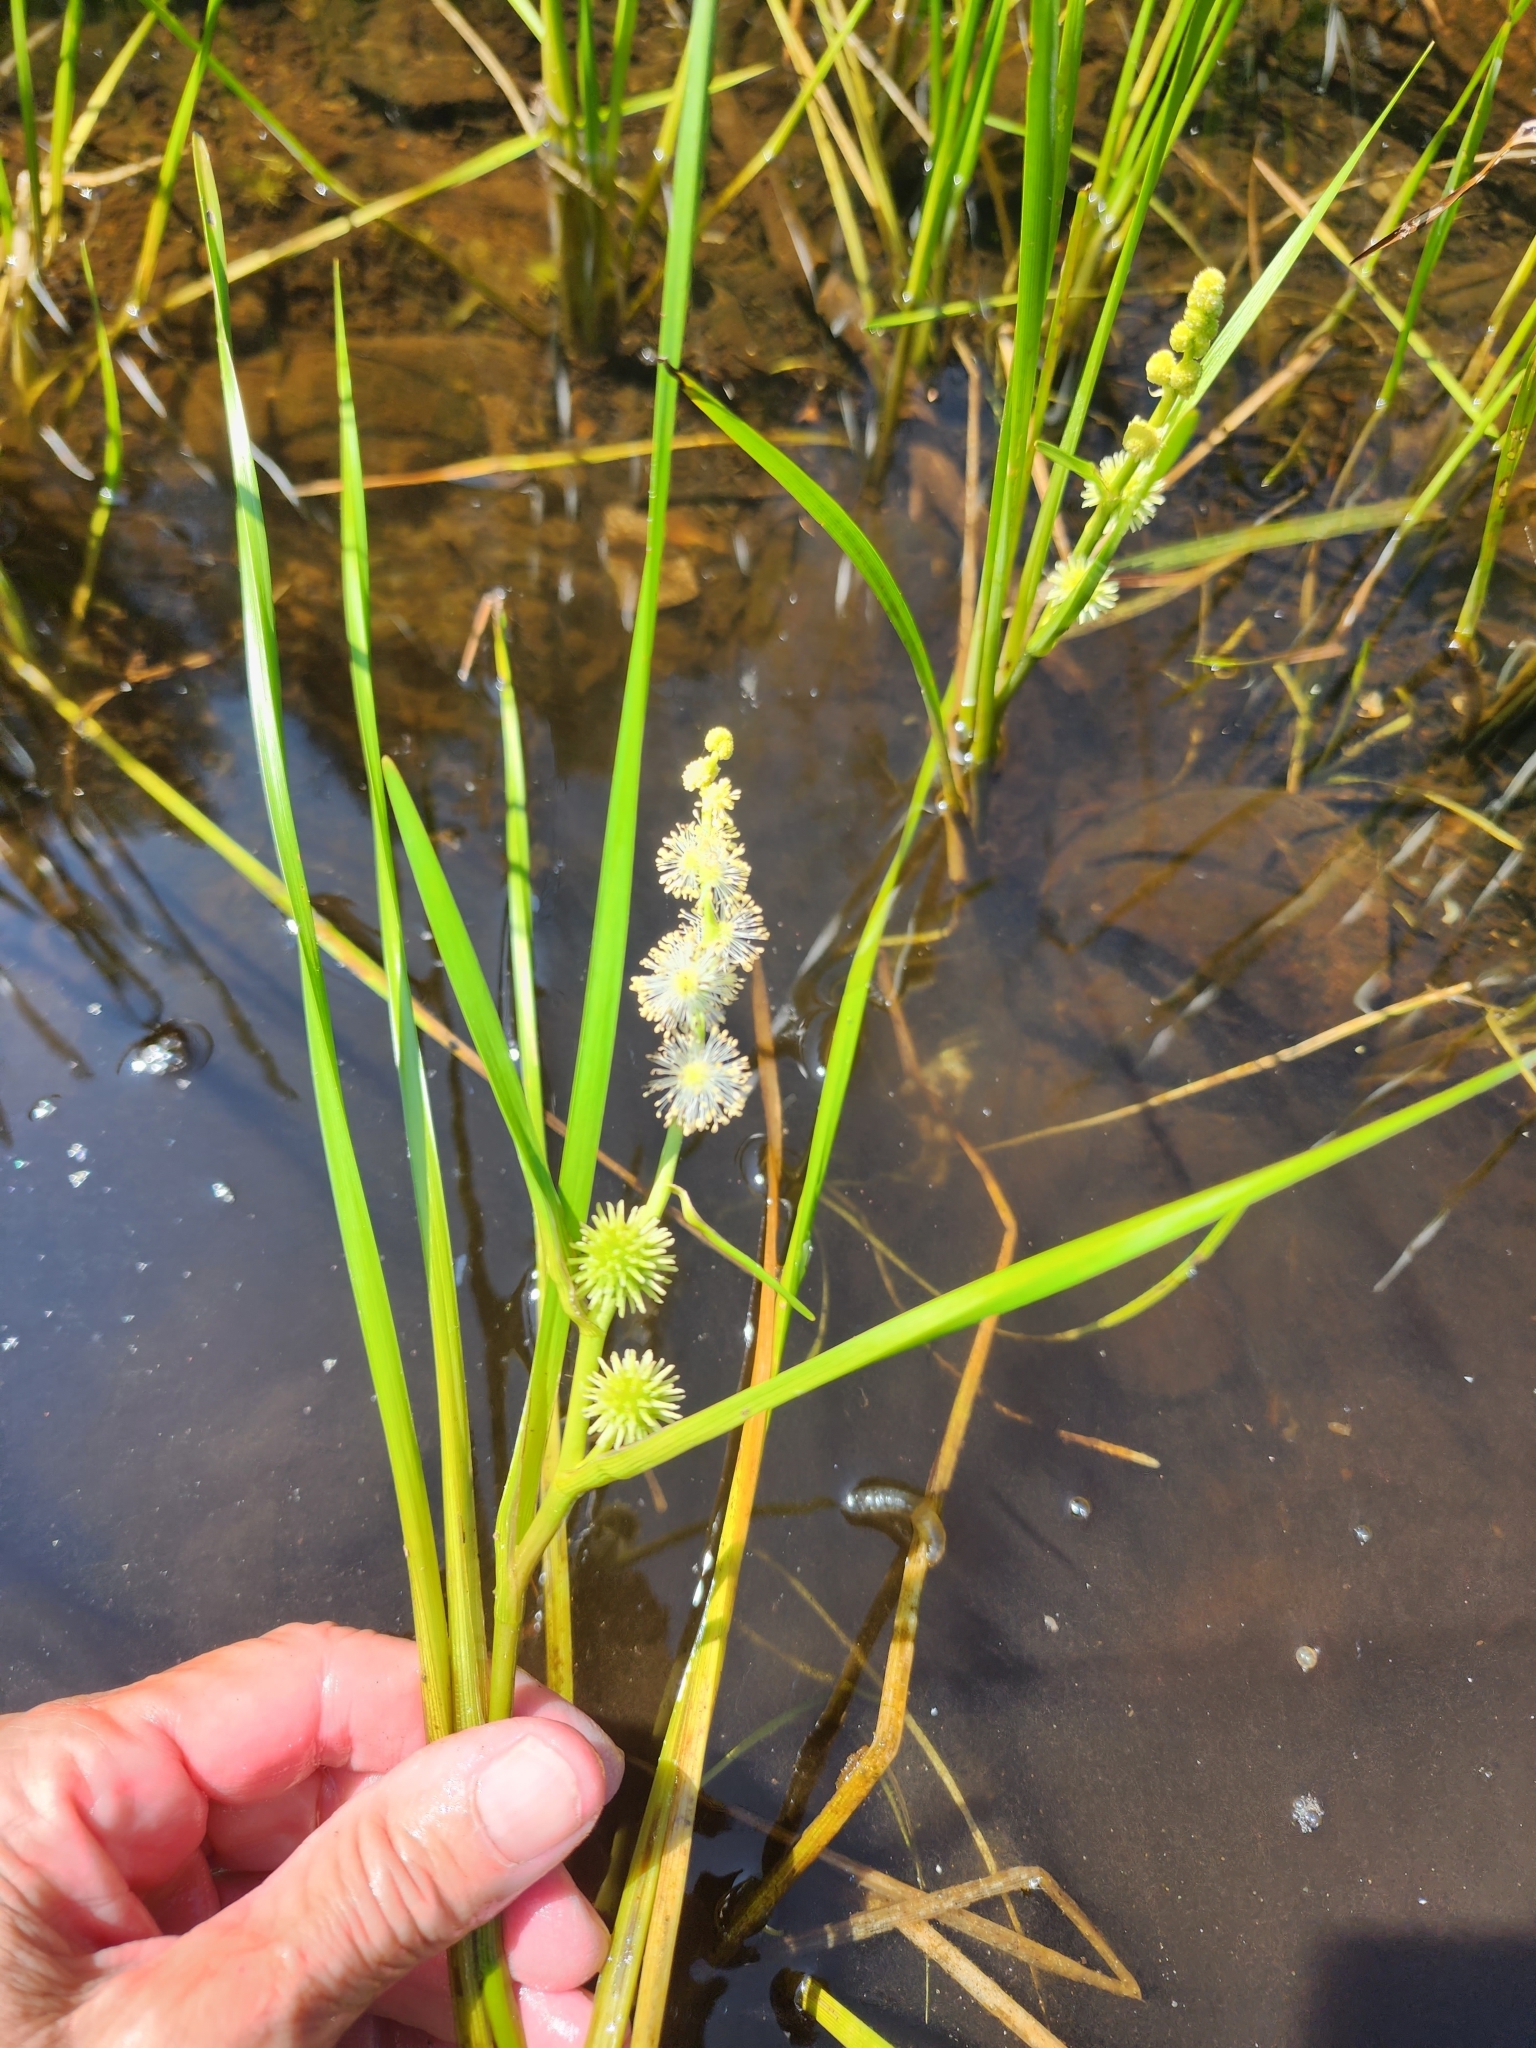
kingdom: Plantae
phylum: Tracheophyta
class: Liliopsida
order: Poales
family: Typhaceae
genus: Sparganium
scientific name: Sparganium emersum
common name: Unbranched bur-reed
